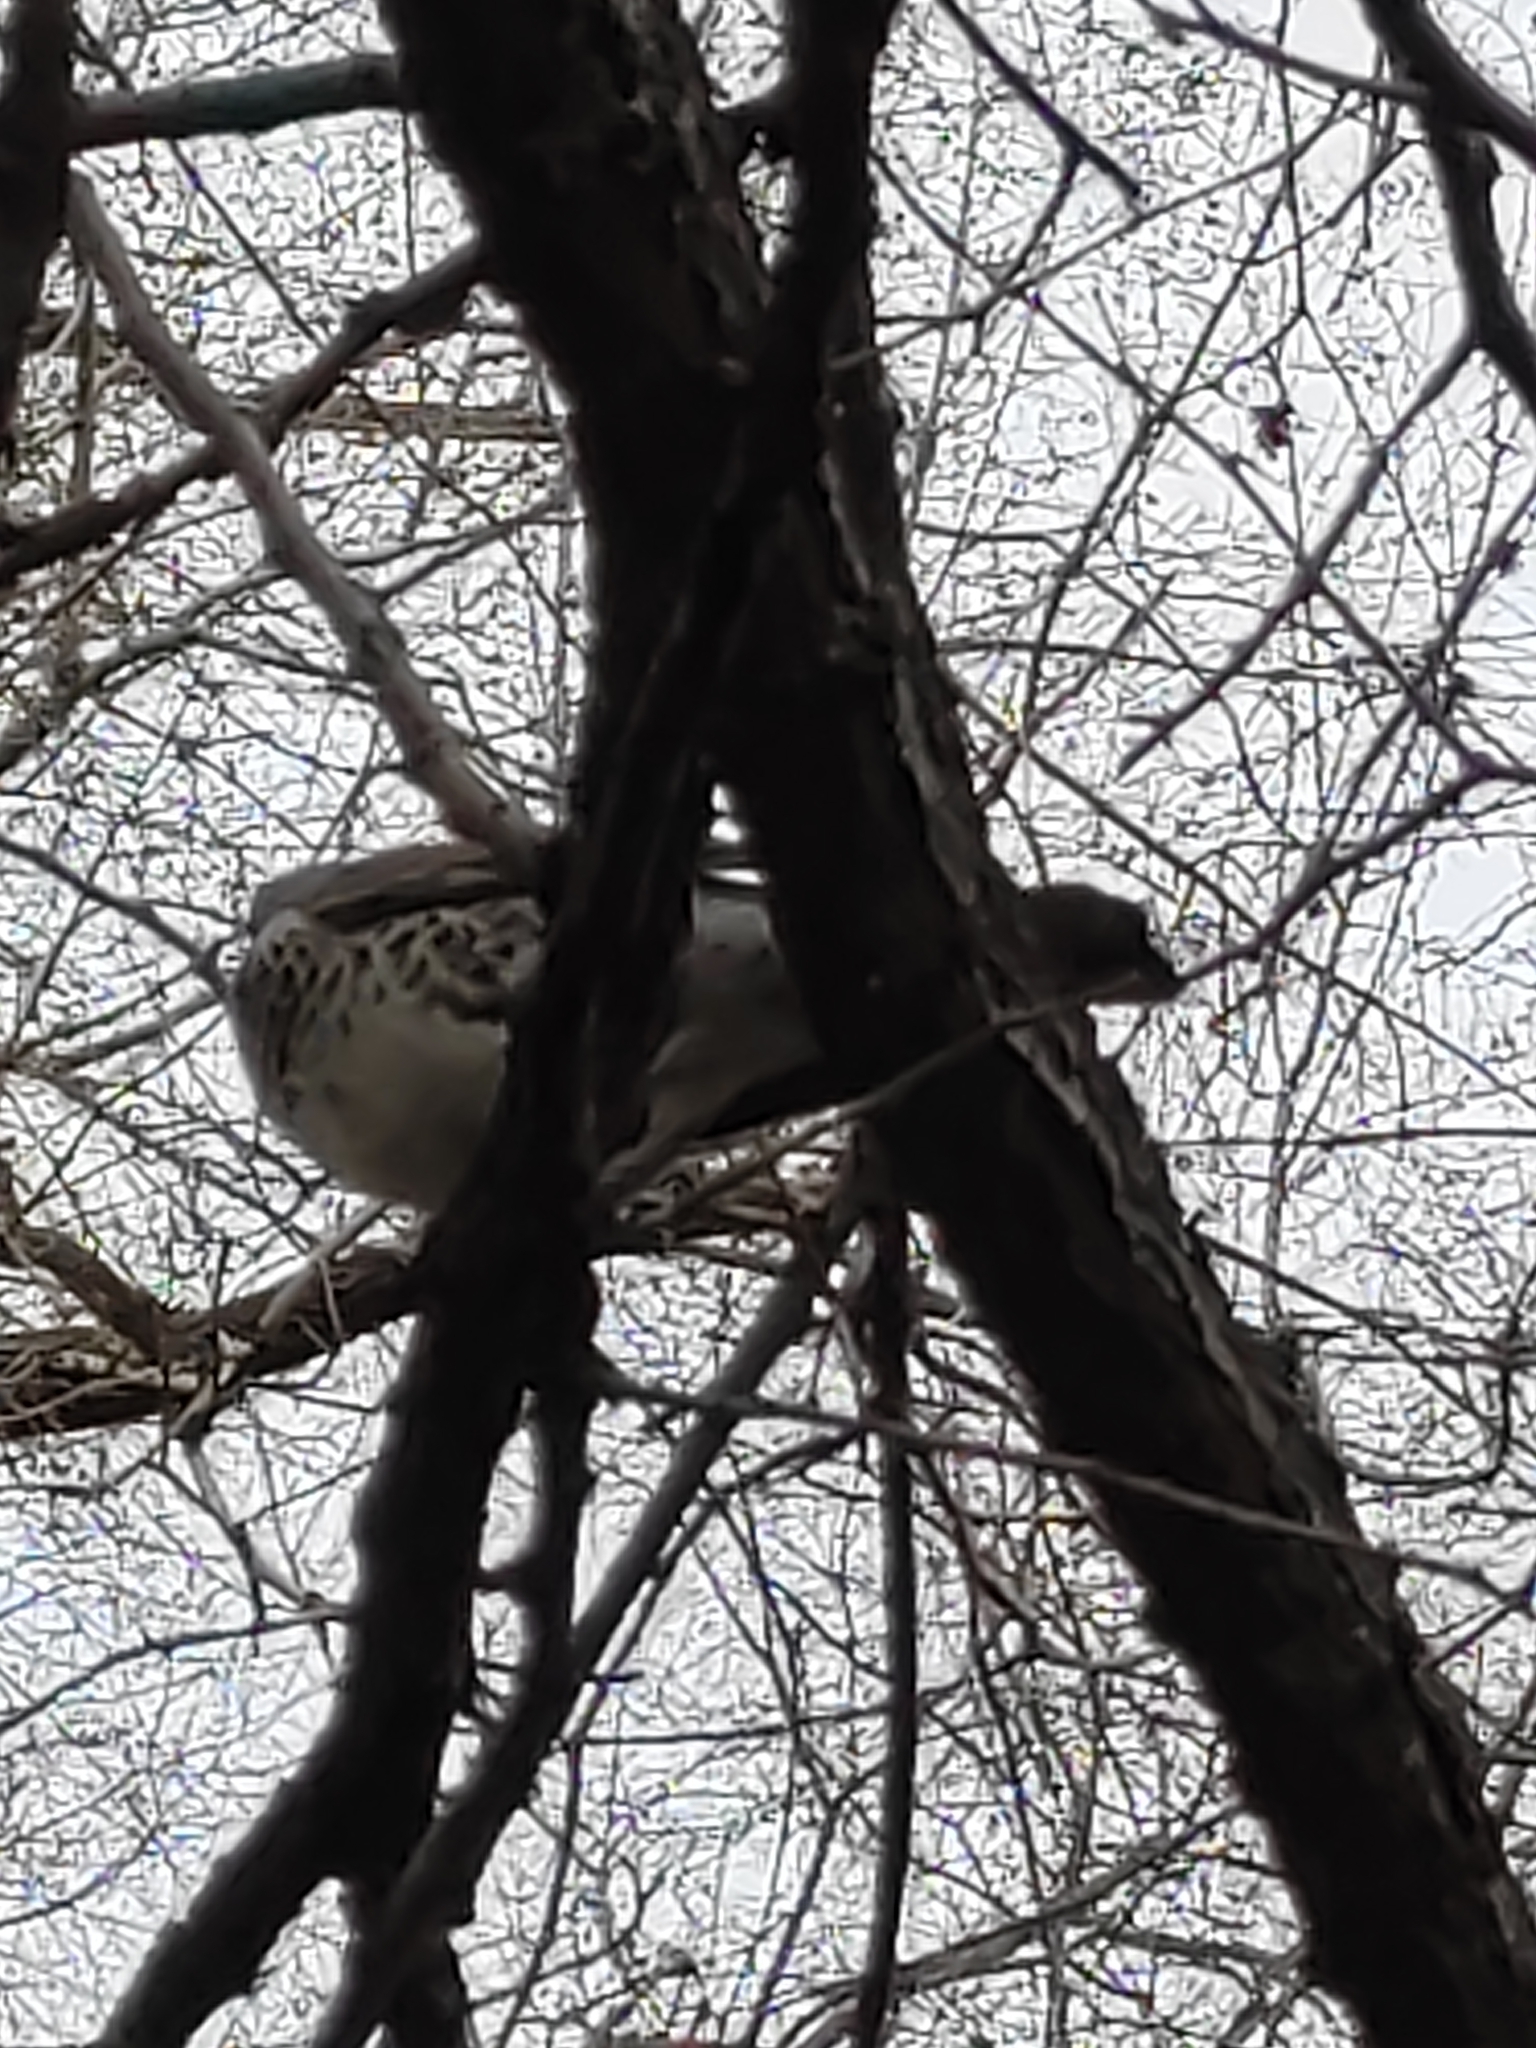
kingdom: Animalia
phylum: Chordata
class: Aves
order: Passeriformes
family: Turdidae
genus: Turdus
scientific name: Turdus pilaris
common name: Fieldfare
